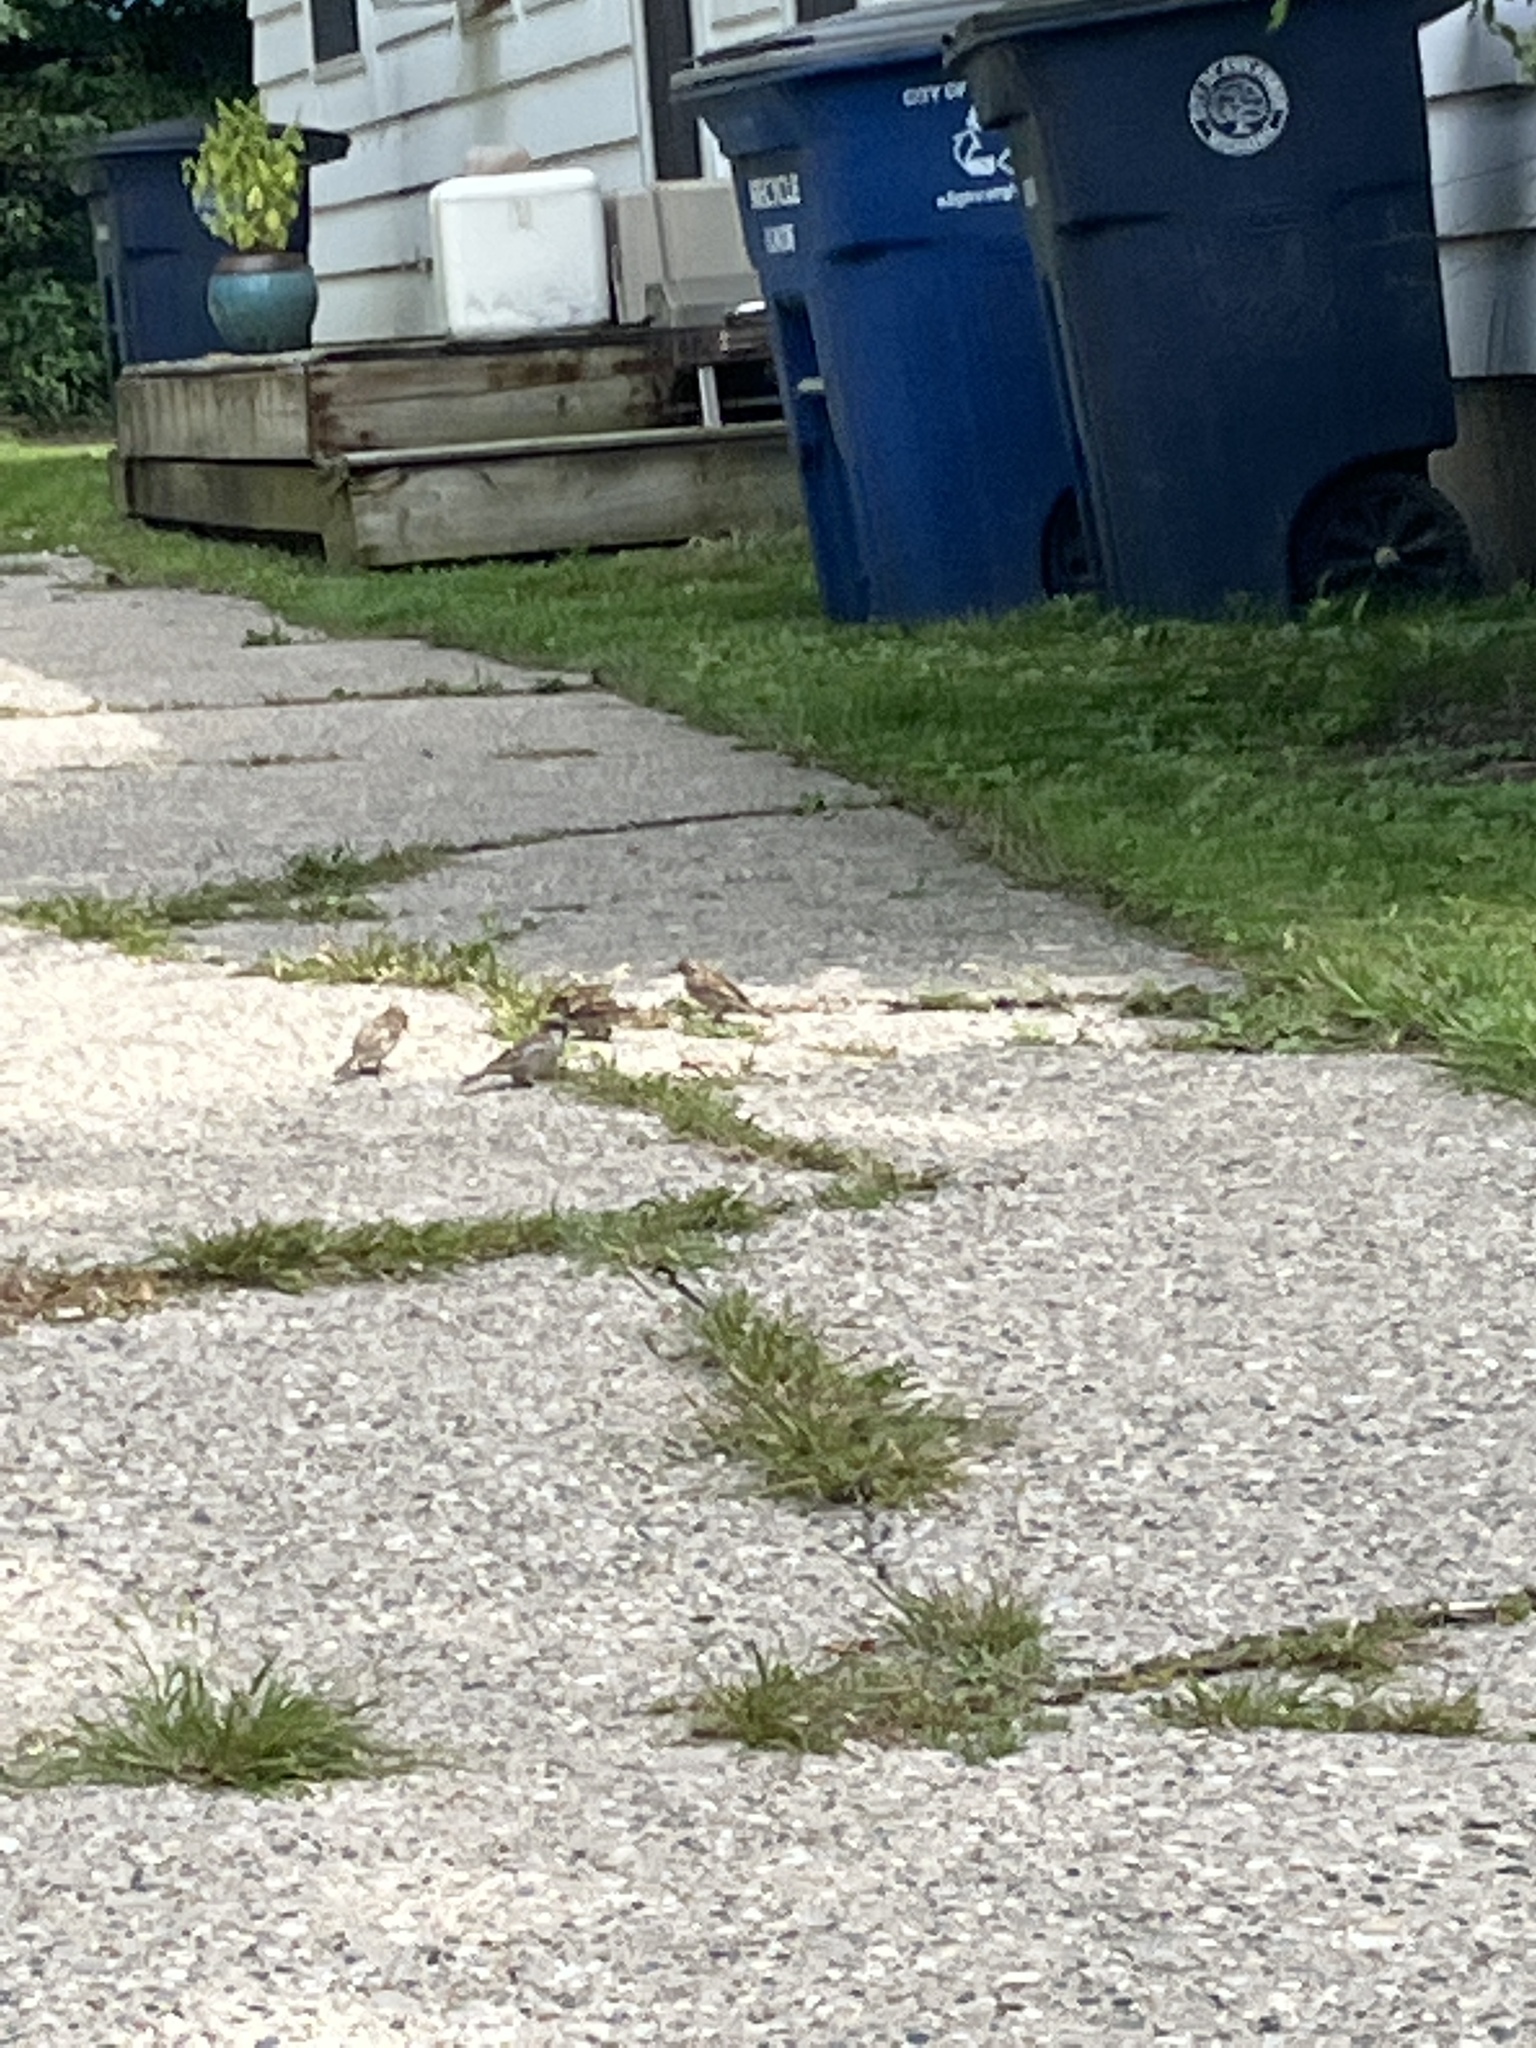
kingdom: Animalia
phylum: Chordata
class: Aves
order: Passeriformes
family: Passeridae
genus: Passer
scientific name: Passer domesticus
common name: House sparrow
